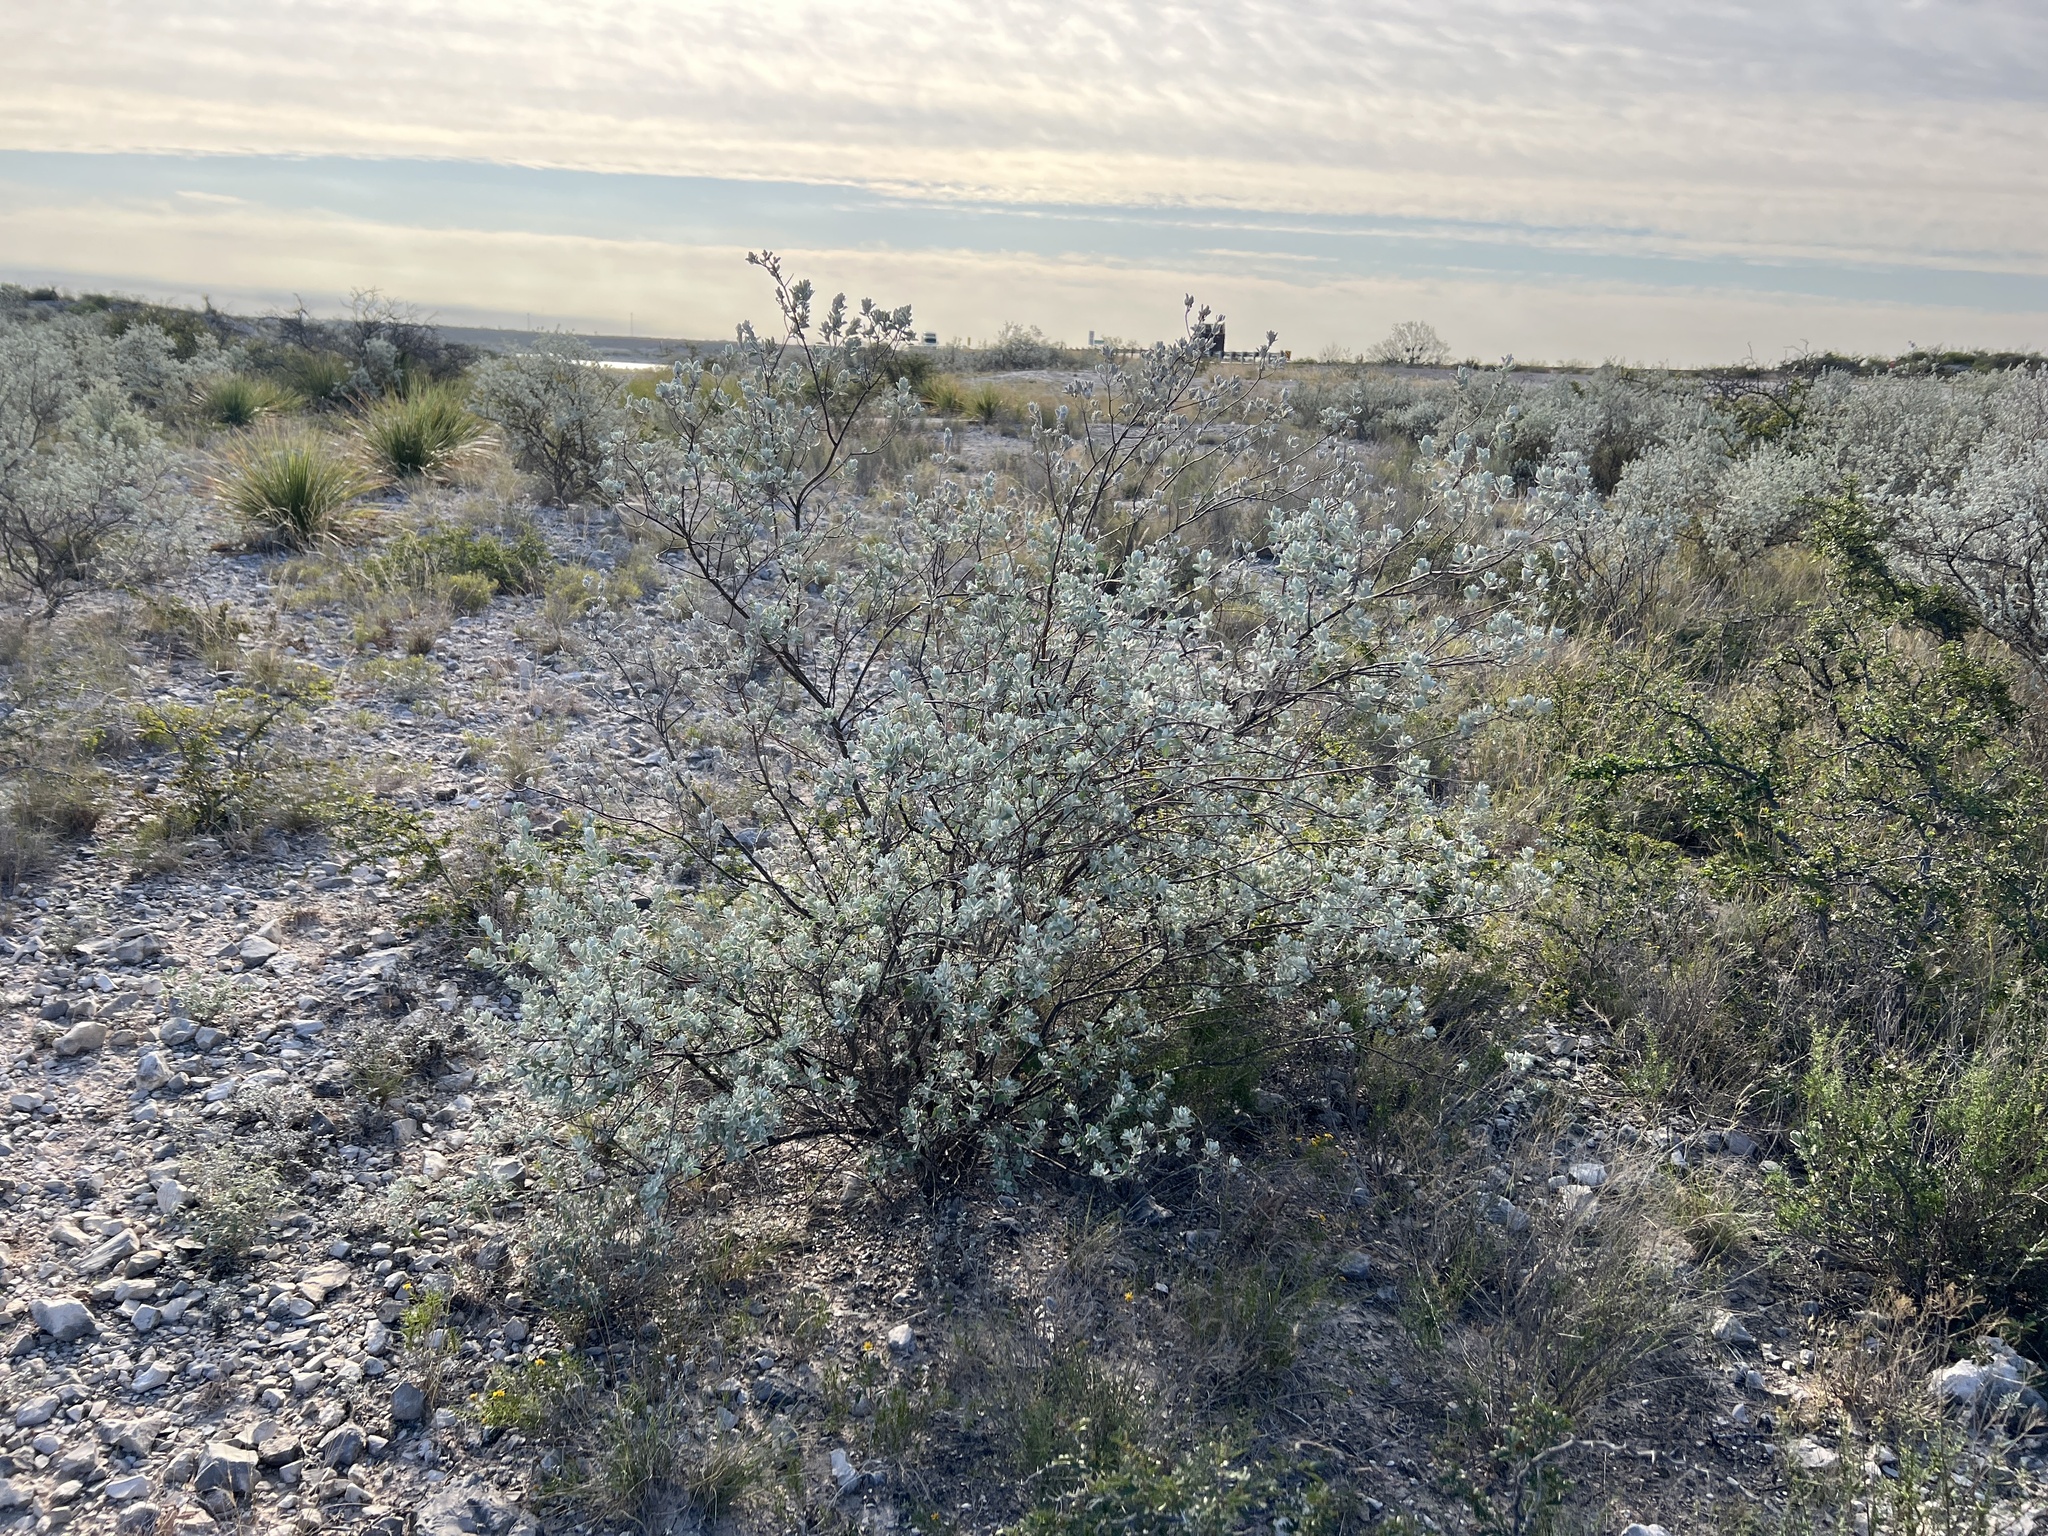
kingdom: Plantae
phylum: Tracheophyta
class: Magnoliopsida
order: Lamiales
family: Scrophulariaceae
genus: Leucophyllum
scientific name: Leucophyllum frutescens
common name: Texas silverleaf
